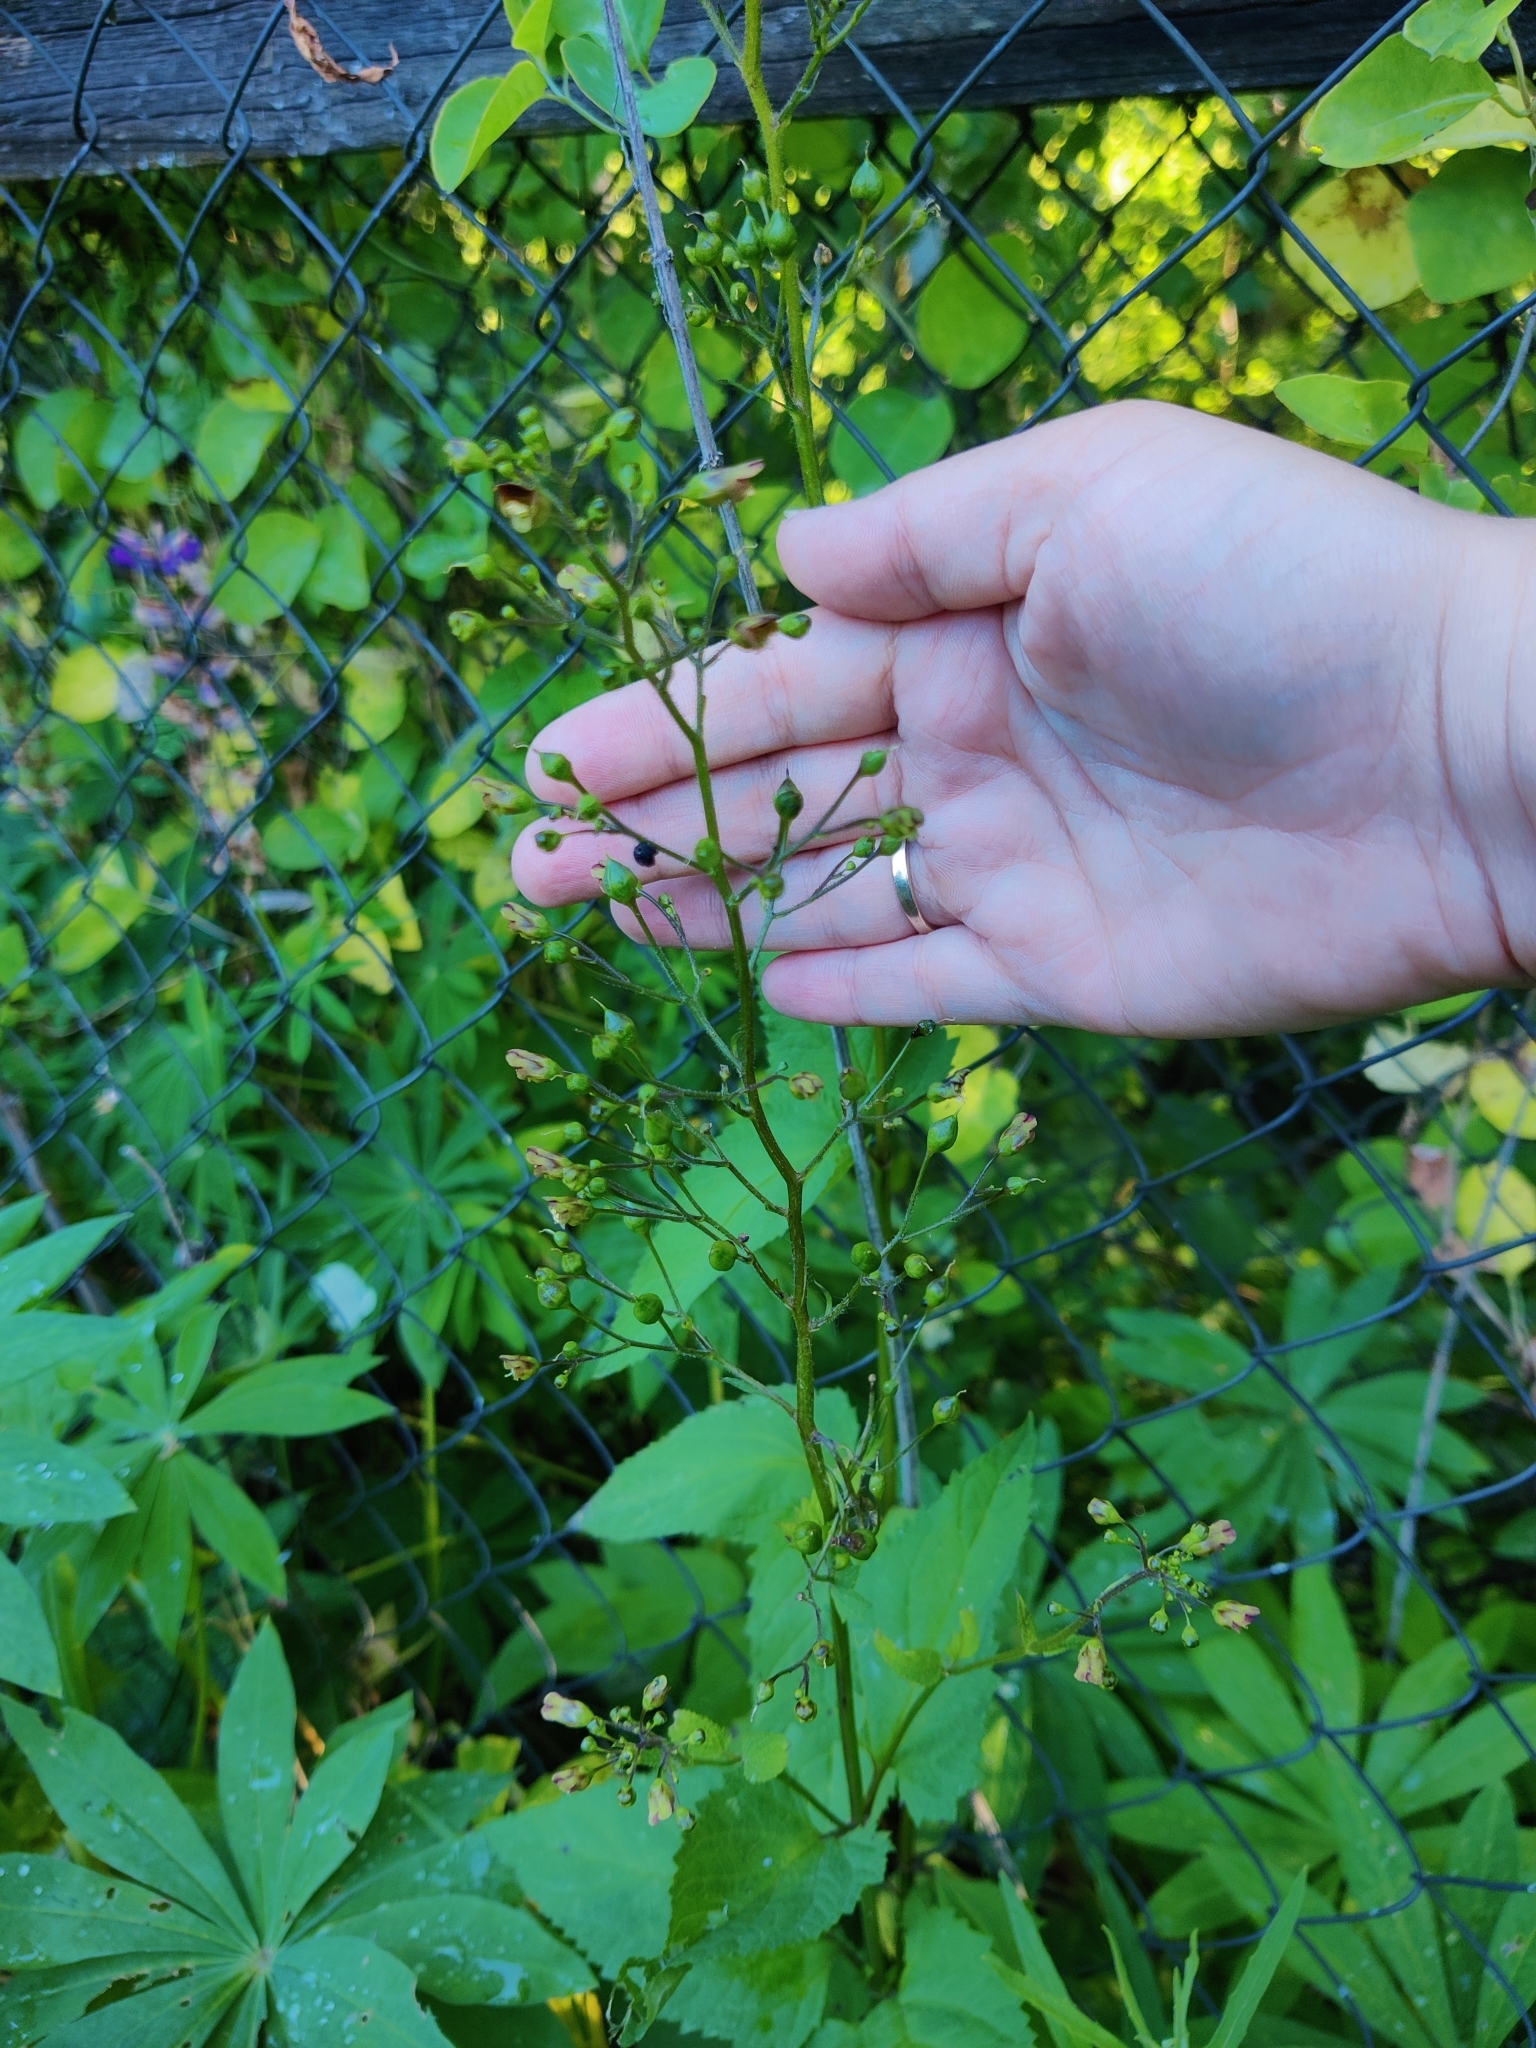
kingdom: Plantae
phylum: Tracheophyta
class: Magnoliopsida
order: Lamiales
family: Scrophulariaceae
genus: Scrophularia
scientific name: Scrophularia nodosa
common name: Common figwort
